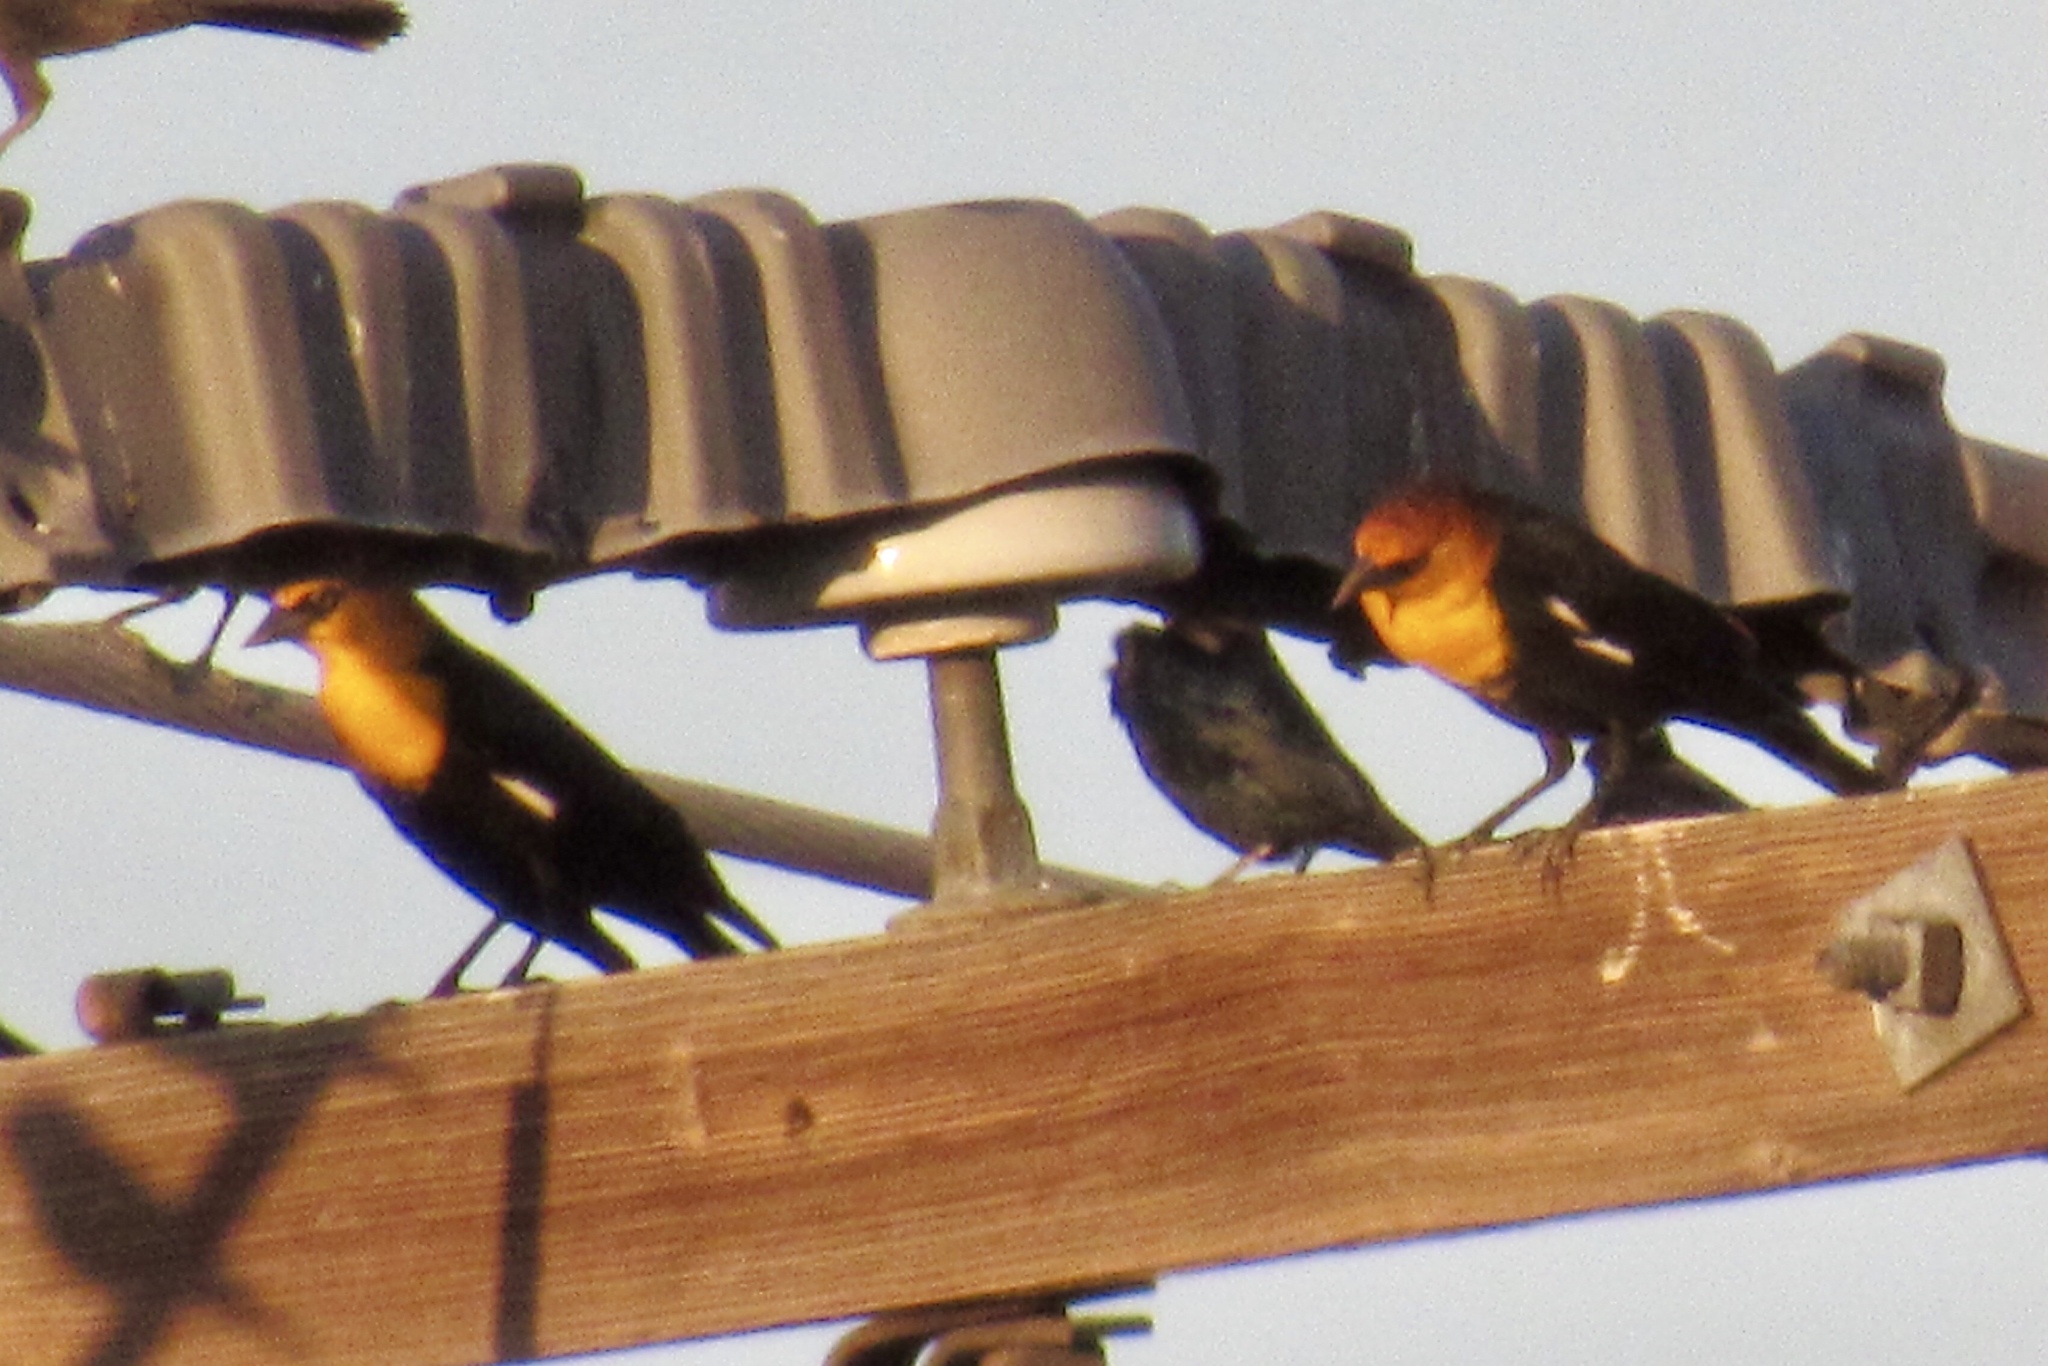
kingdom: Animalia
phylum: Chordata
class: Aves
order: Passeriformes
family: Icteridae
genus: Xanthocephalus
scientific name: Xanthocephalus xanthocephalus
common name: Yellow-headed blackbird
